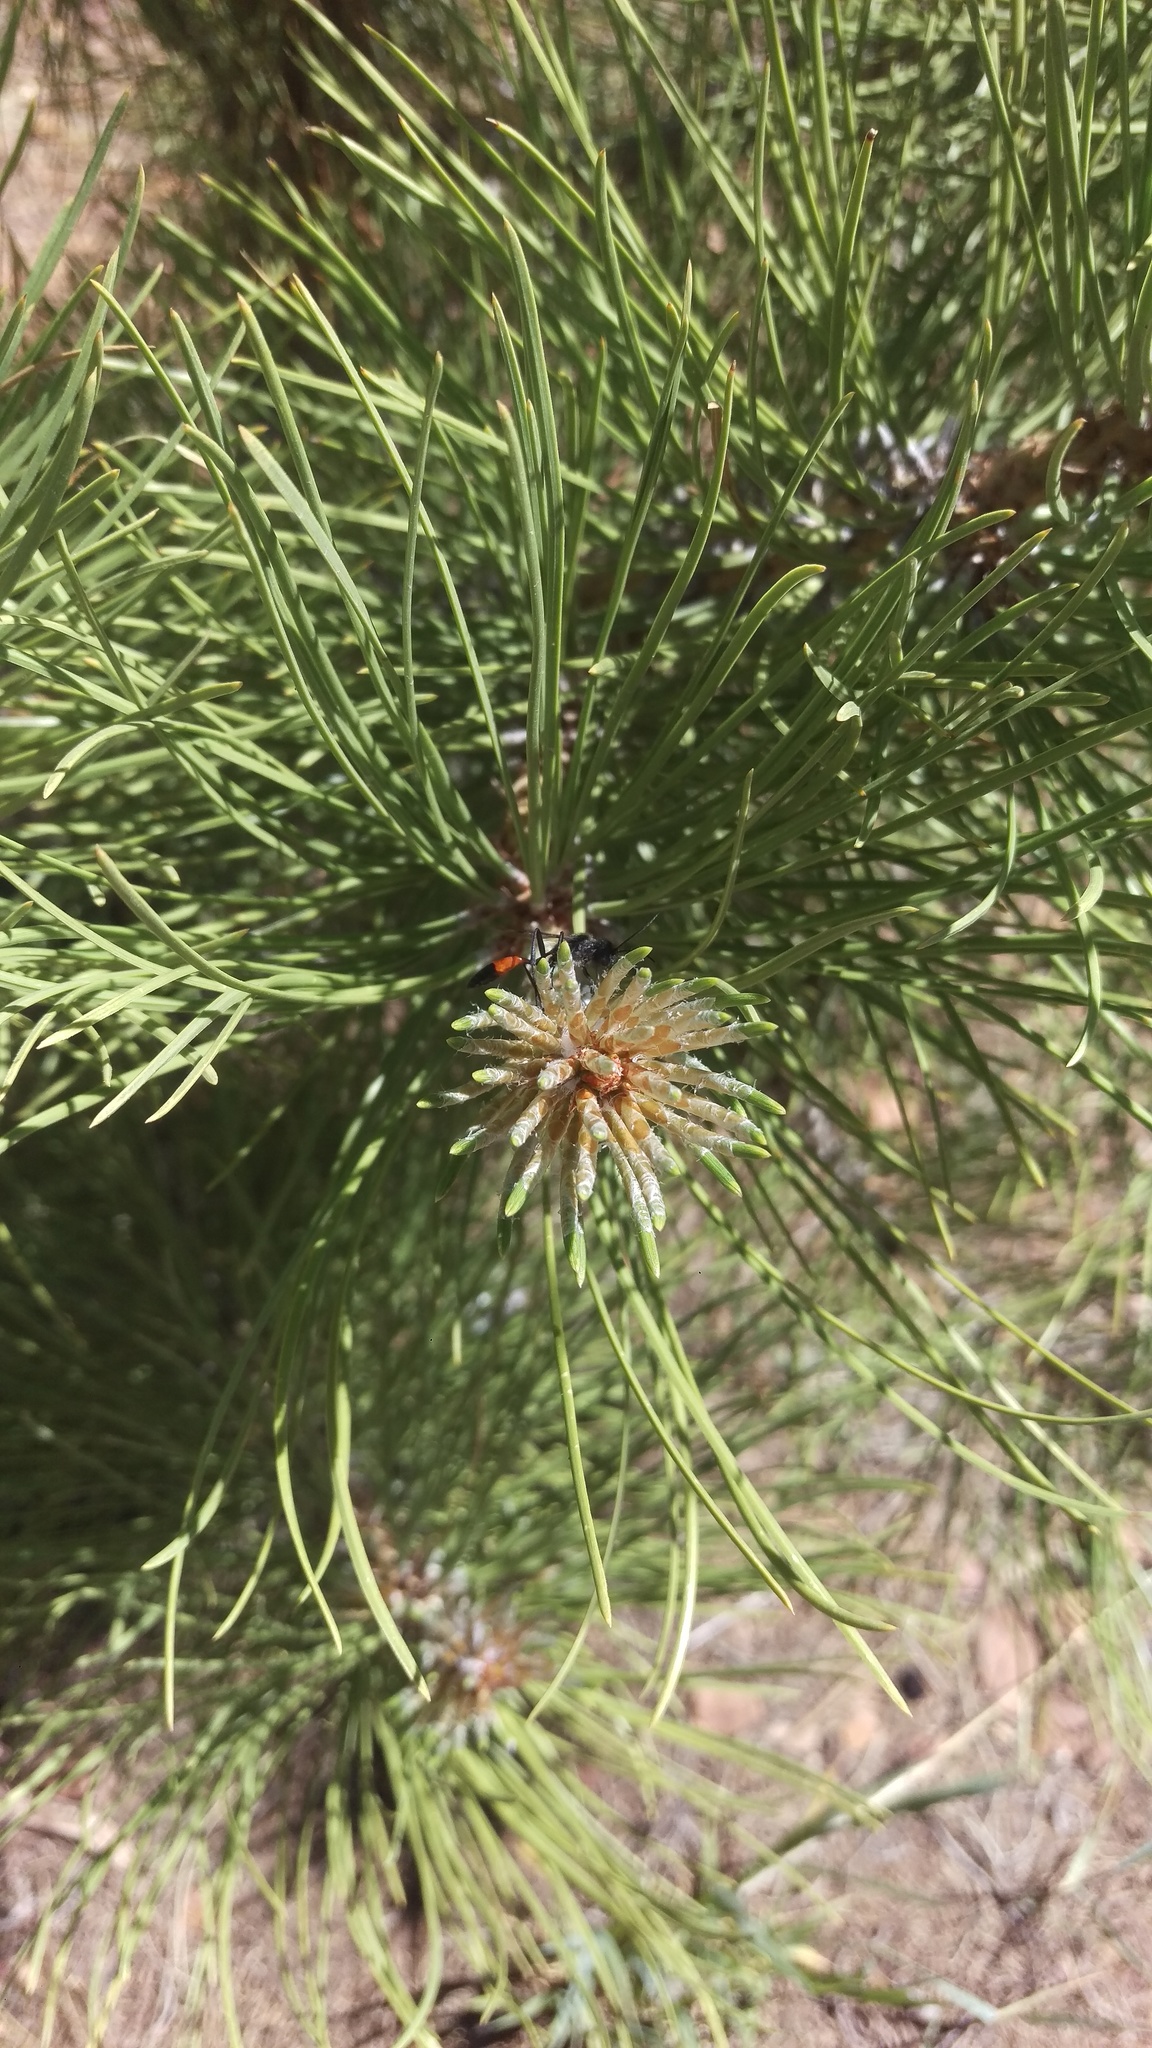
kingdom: Plantae
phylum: Tracheophyta
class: Pinopsida
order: Pinales
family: Pinaceae
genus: Pinus
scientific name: Pinus ponderosa
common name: Western yellow-pine
